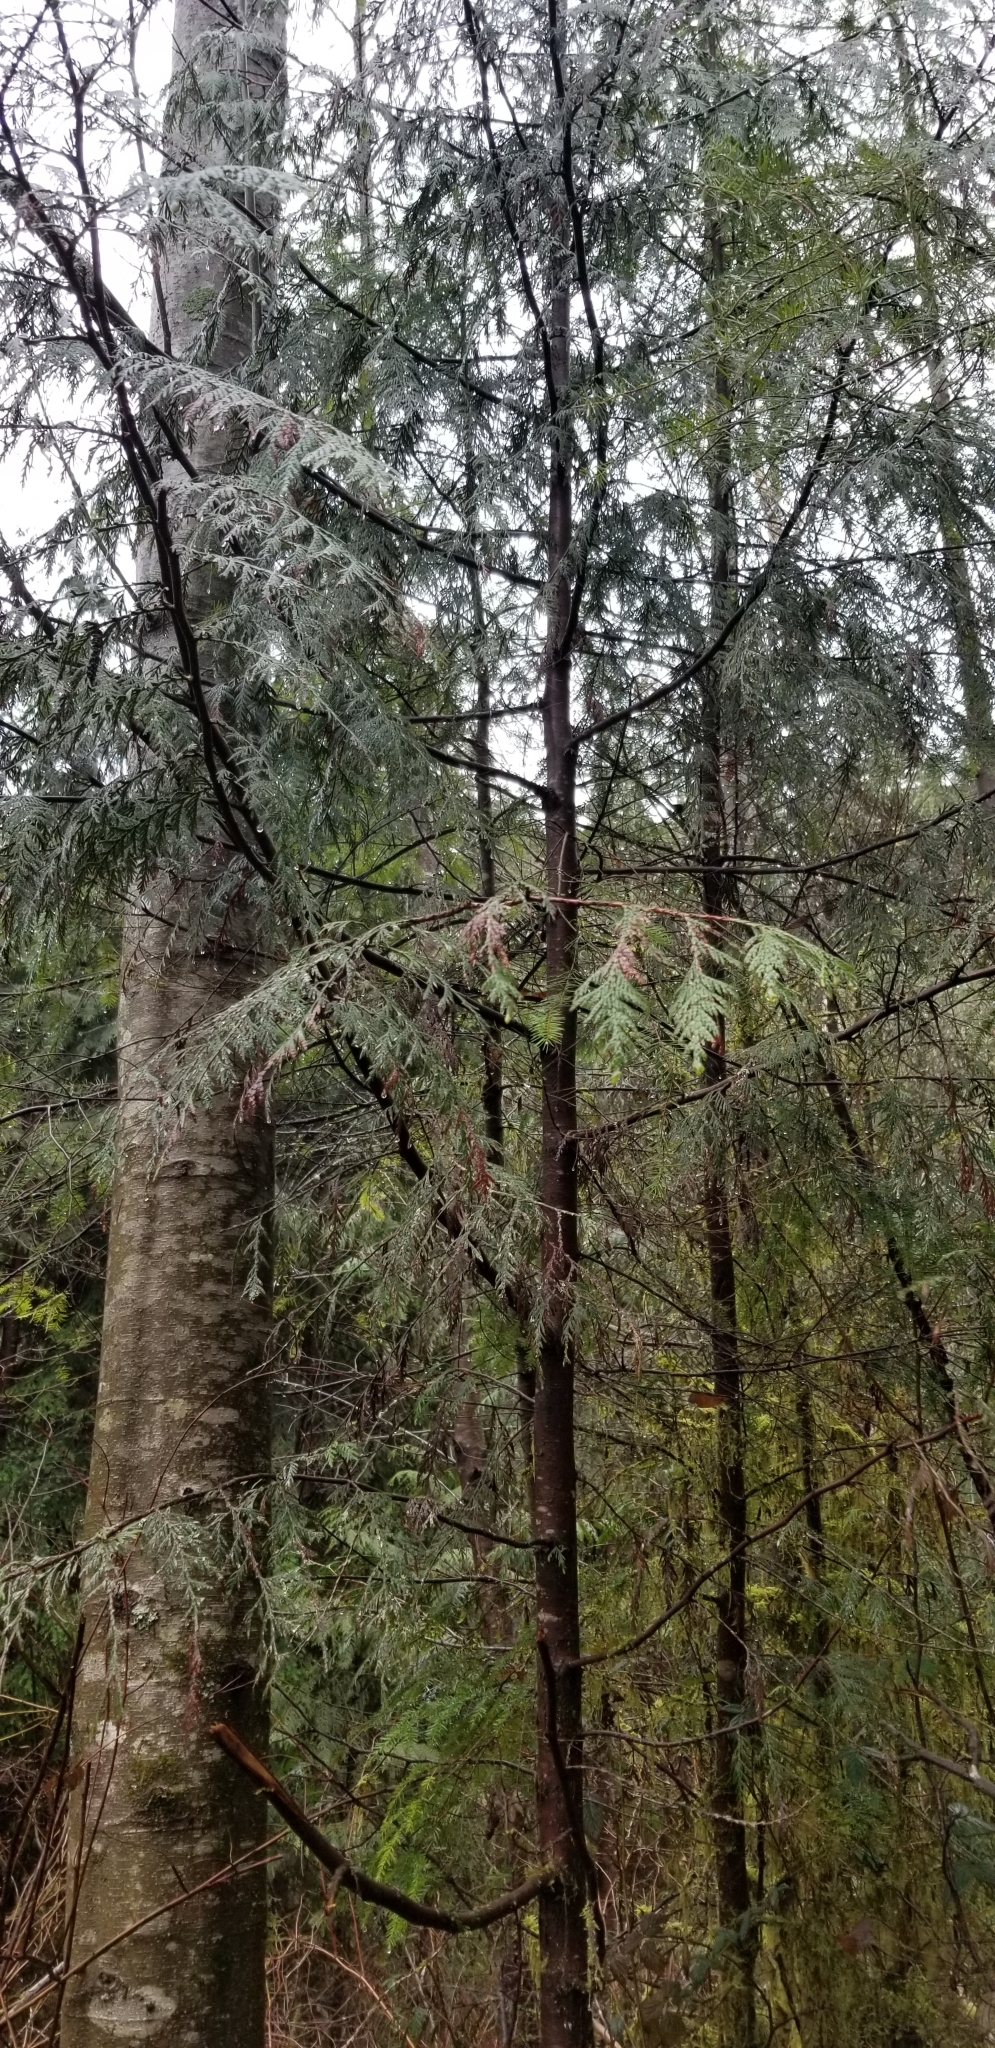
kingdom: Plantae
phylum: Tracheophyta
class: Pinopsida
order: Pinales
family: Cupressaceae
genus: Thuja
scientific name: Thuja plicata
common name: Western red-cedar
